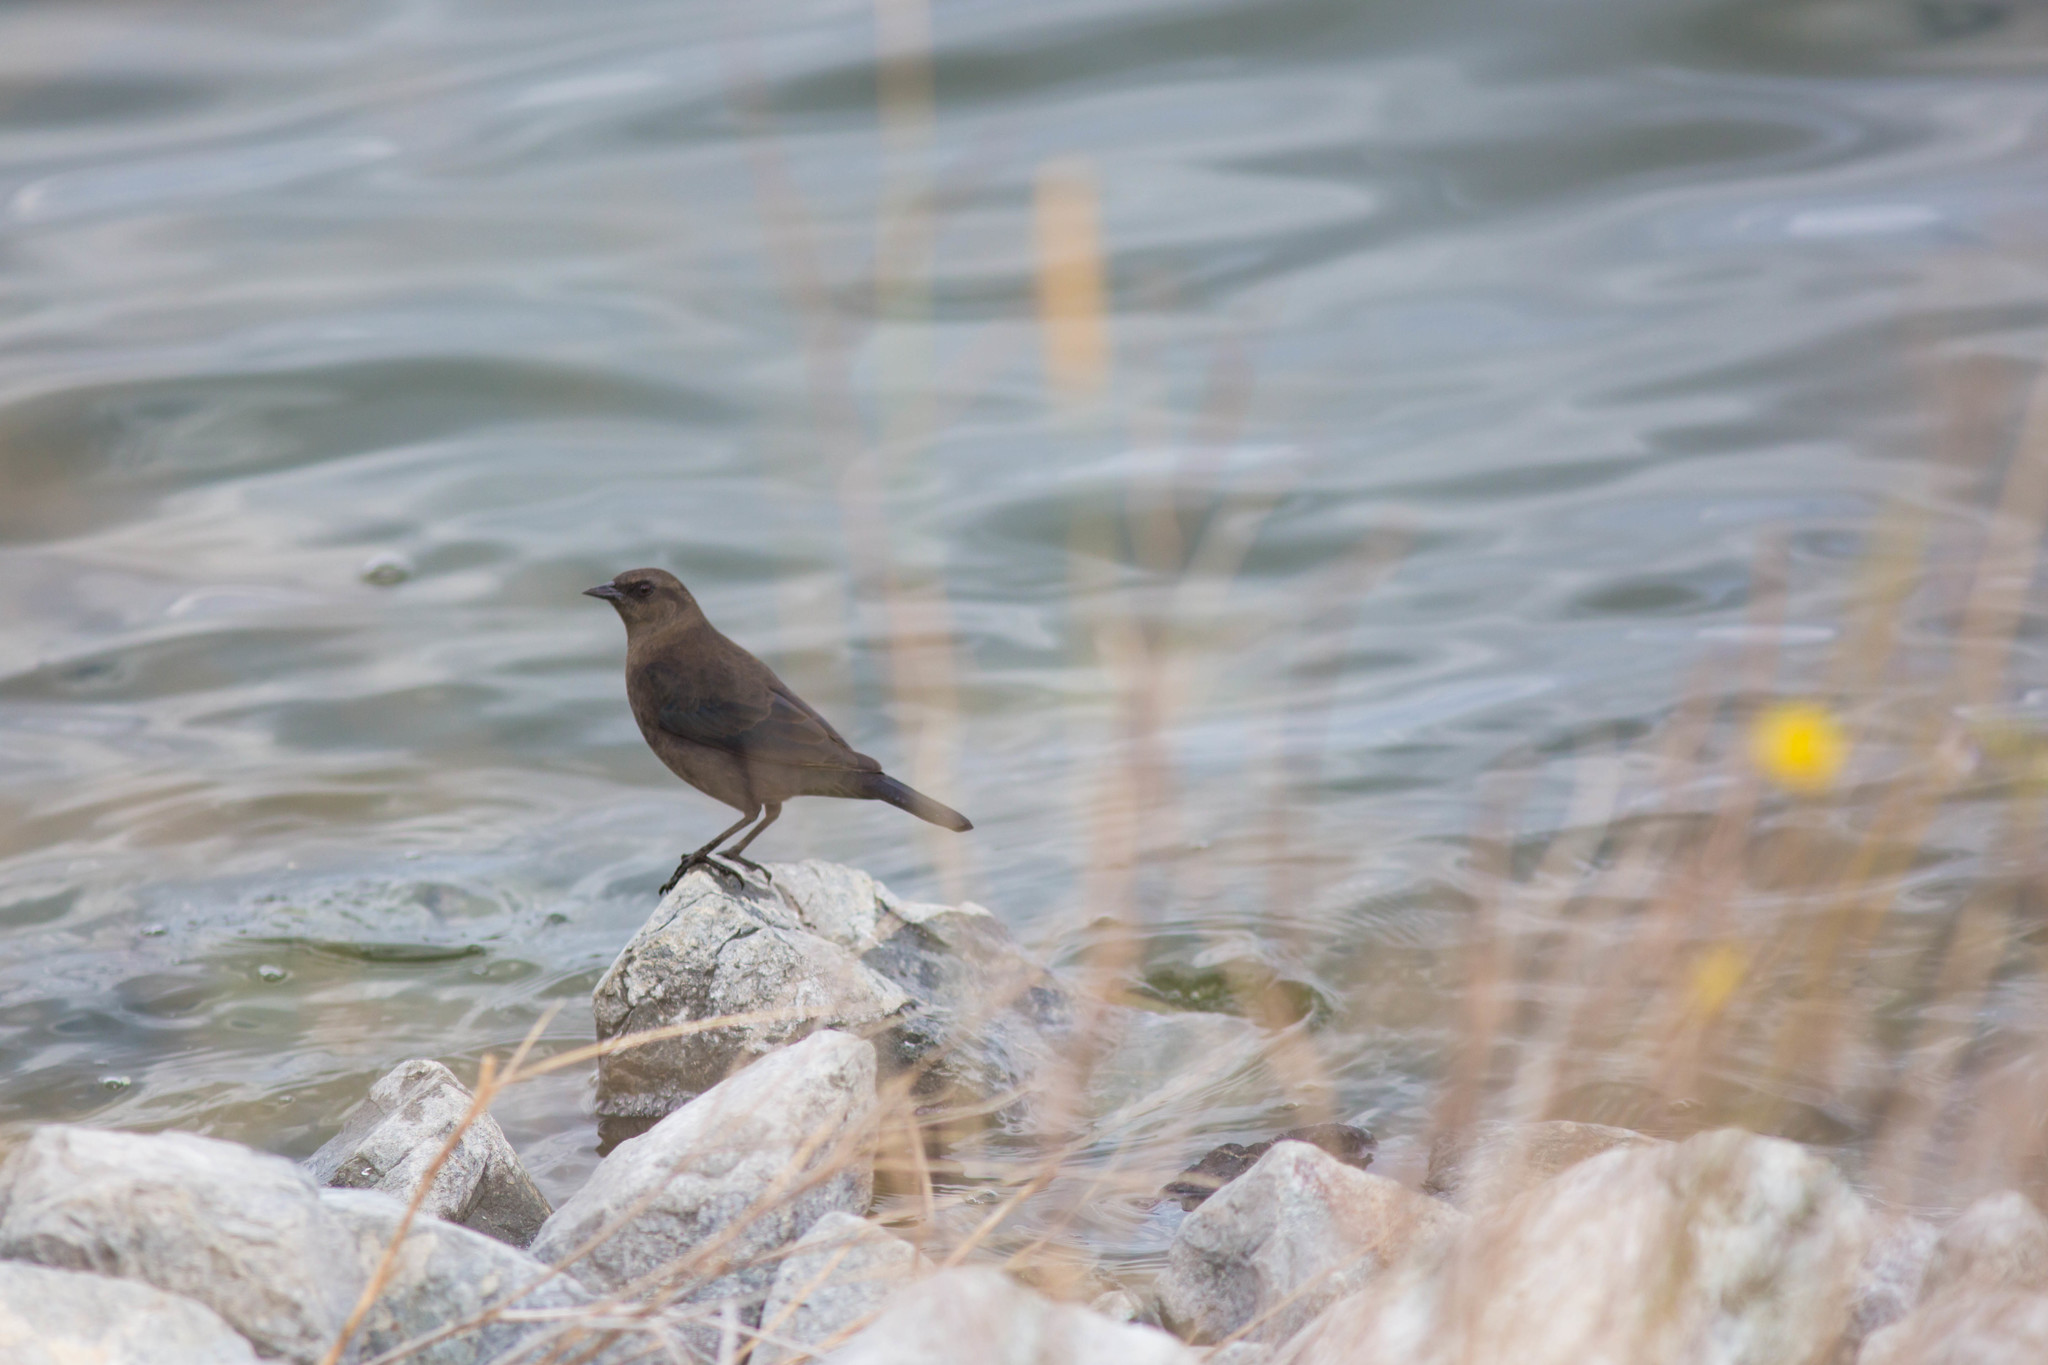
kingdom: Animalia
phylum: Chordata
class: Aves
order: Passeriformes
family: Icteridae
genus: Euphagus
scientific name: Euphagus cyanocephalus
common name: Brewer's blackbird
